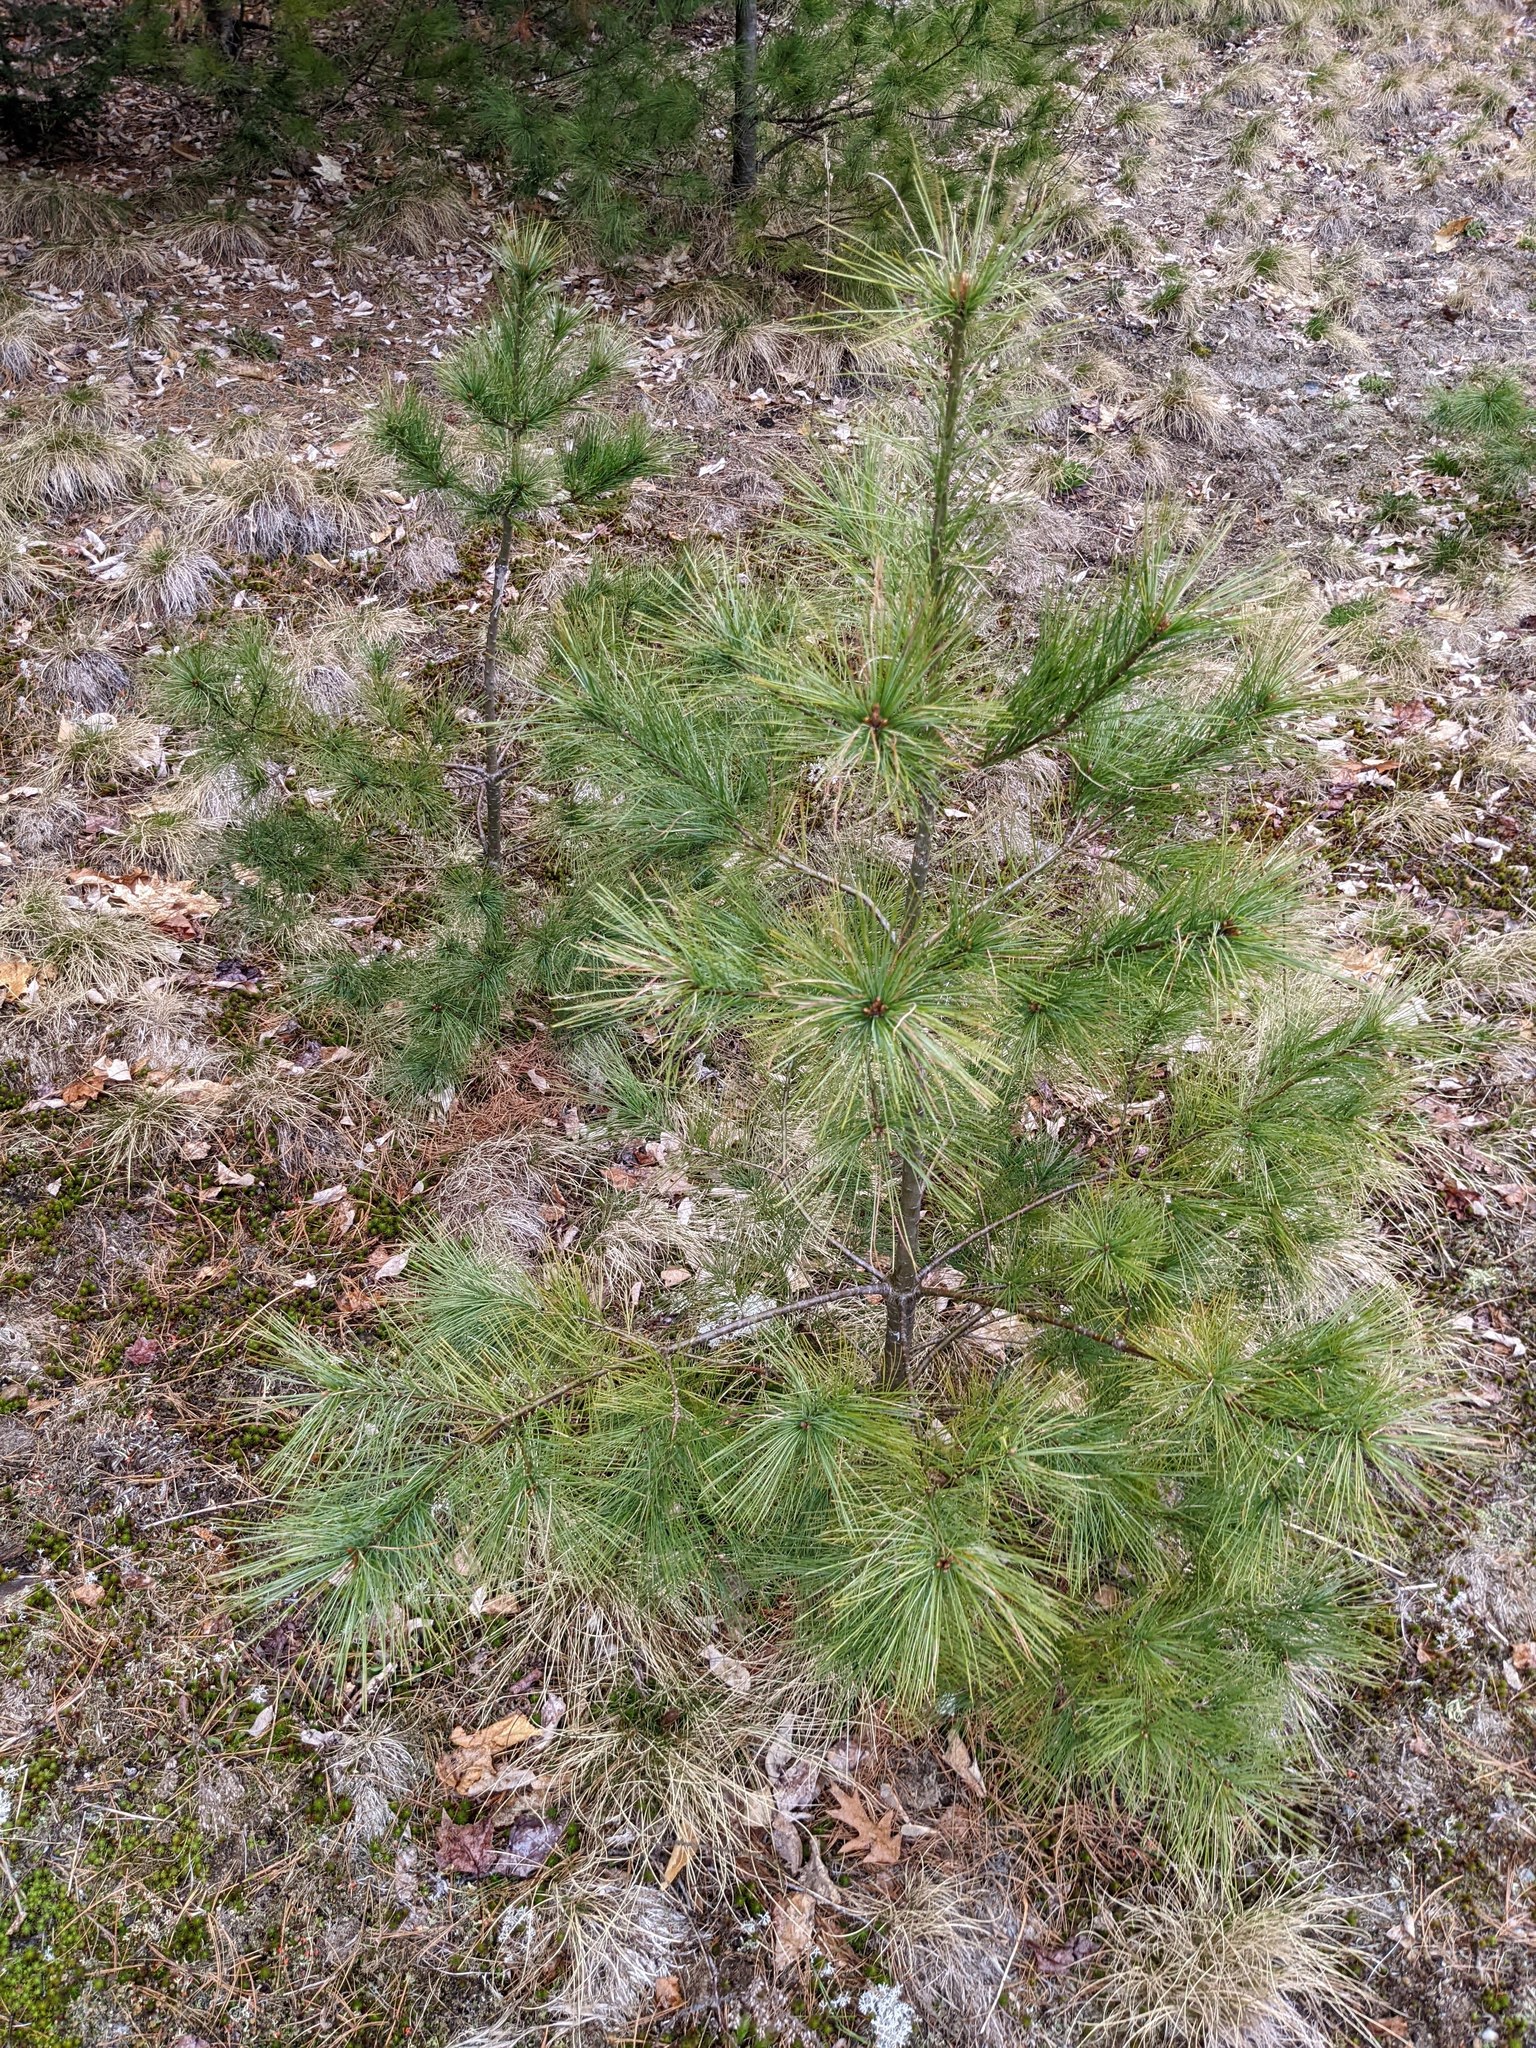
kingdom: Plantae
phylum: Tracheophyta
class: Pinopsida
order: Pinales
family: Pinaceae
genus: Pinus
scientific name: Pinus strobus
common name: Weymouth pine
